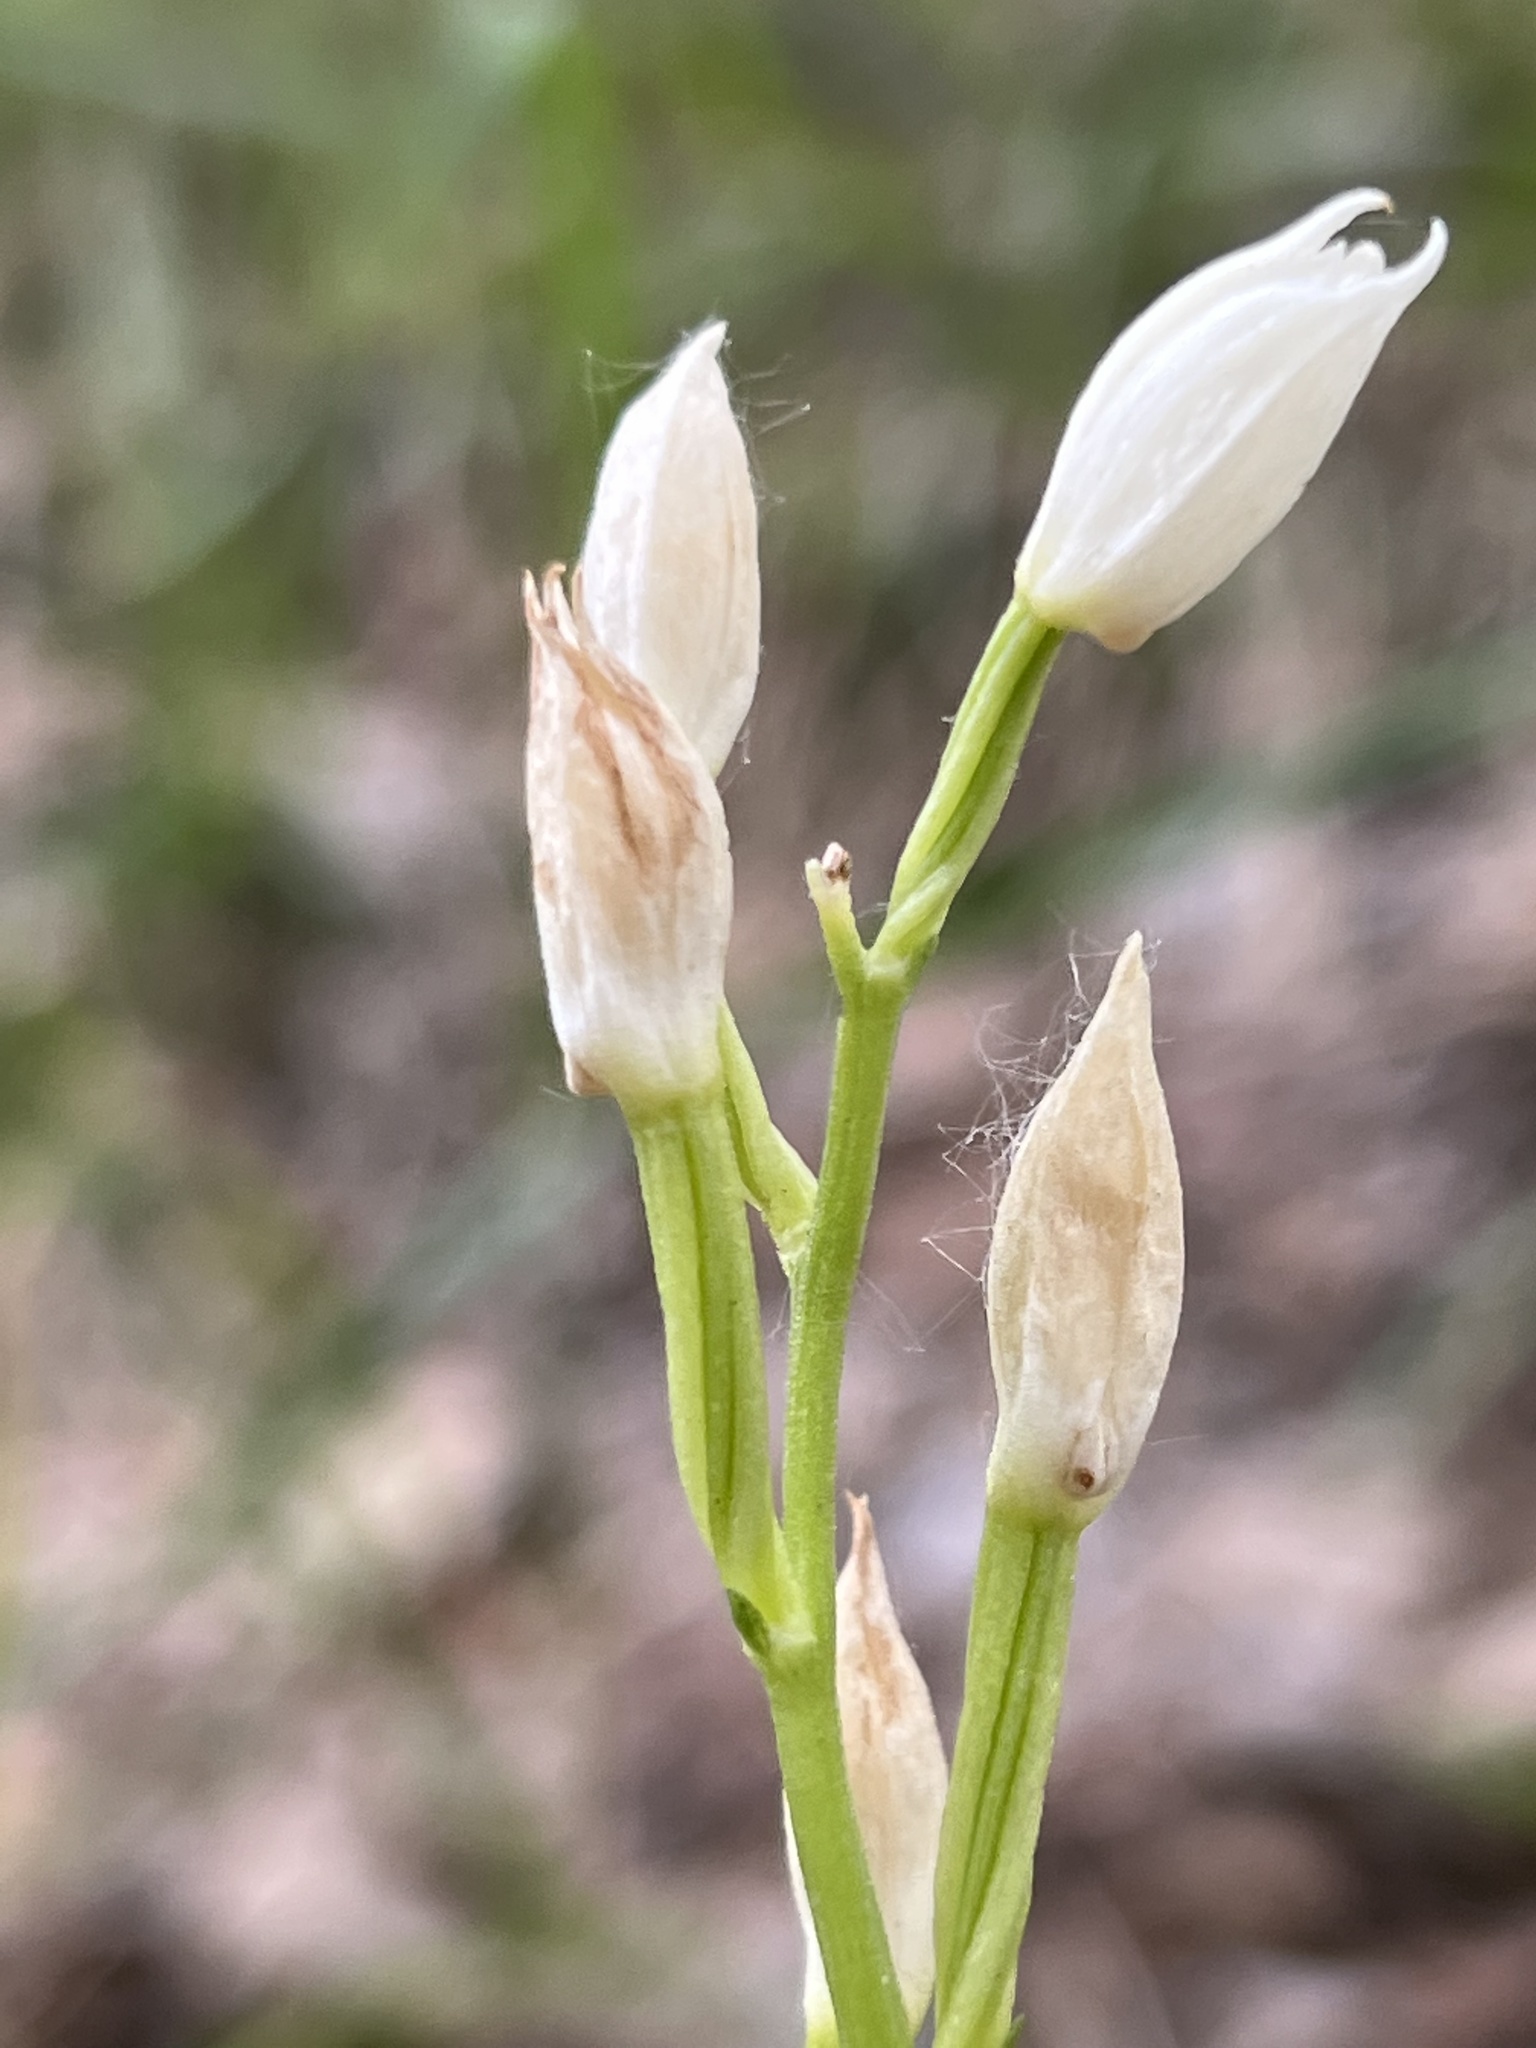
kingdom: Plantae
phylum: Tracheophyta
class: Liliopsida
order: Asparagales
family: Orchidaceae
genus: Cephalanthera
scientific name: Cephalanthera longifolia
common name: Narrow-leaved helleborine
